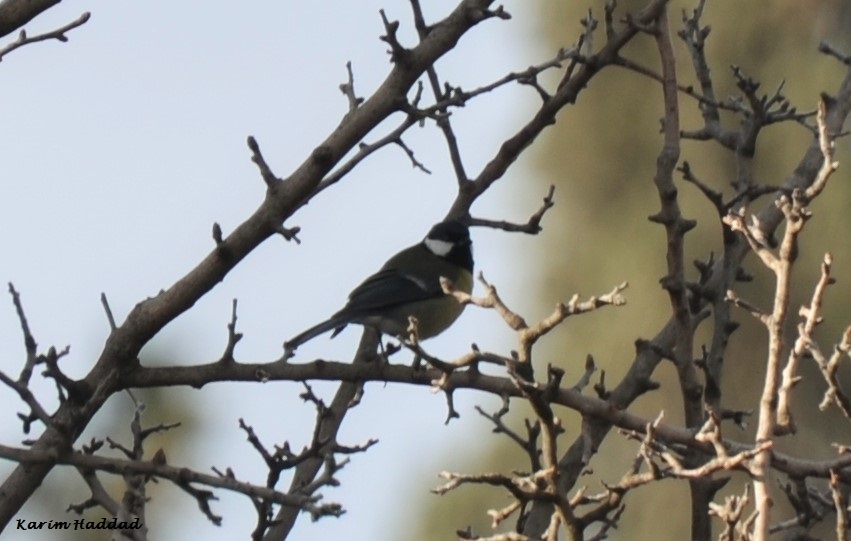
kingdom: Animalia
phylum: Chordata
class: Aves
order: Passeriformes
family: Paridae
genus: Parus
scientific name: Parus major
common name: Great tit
